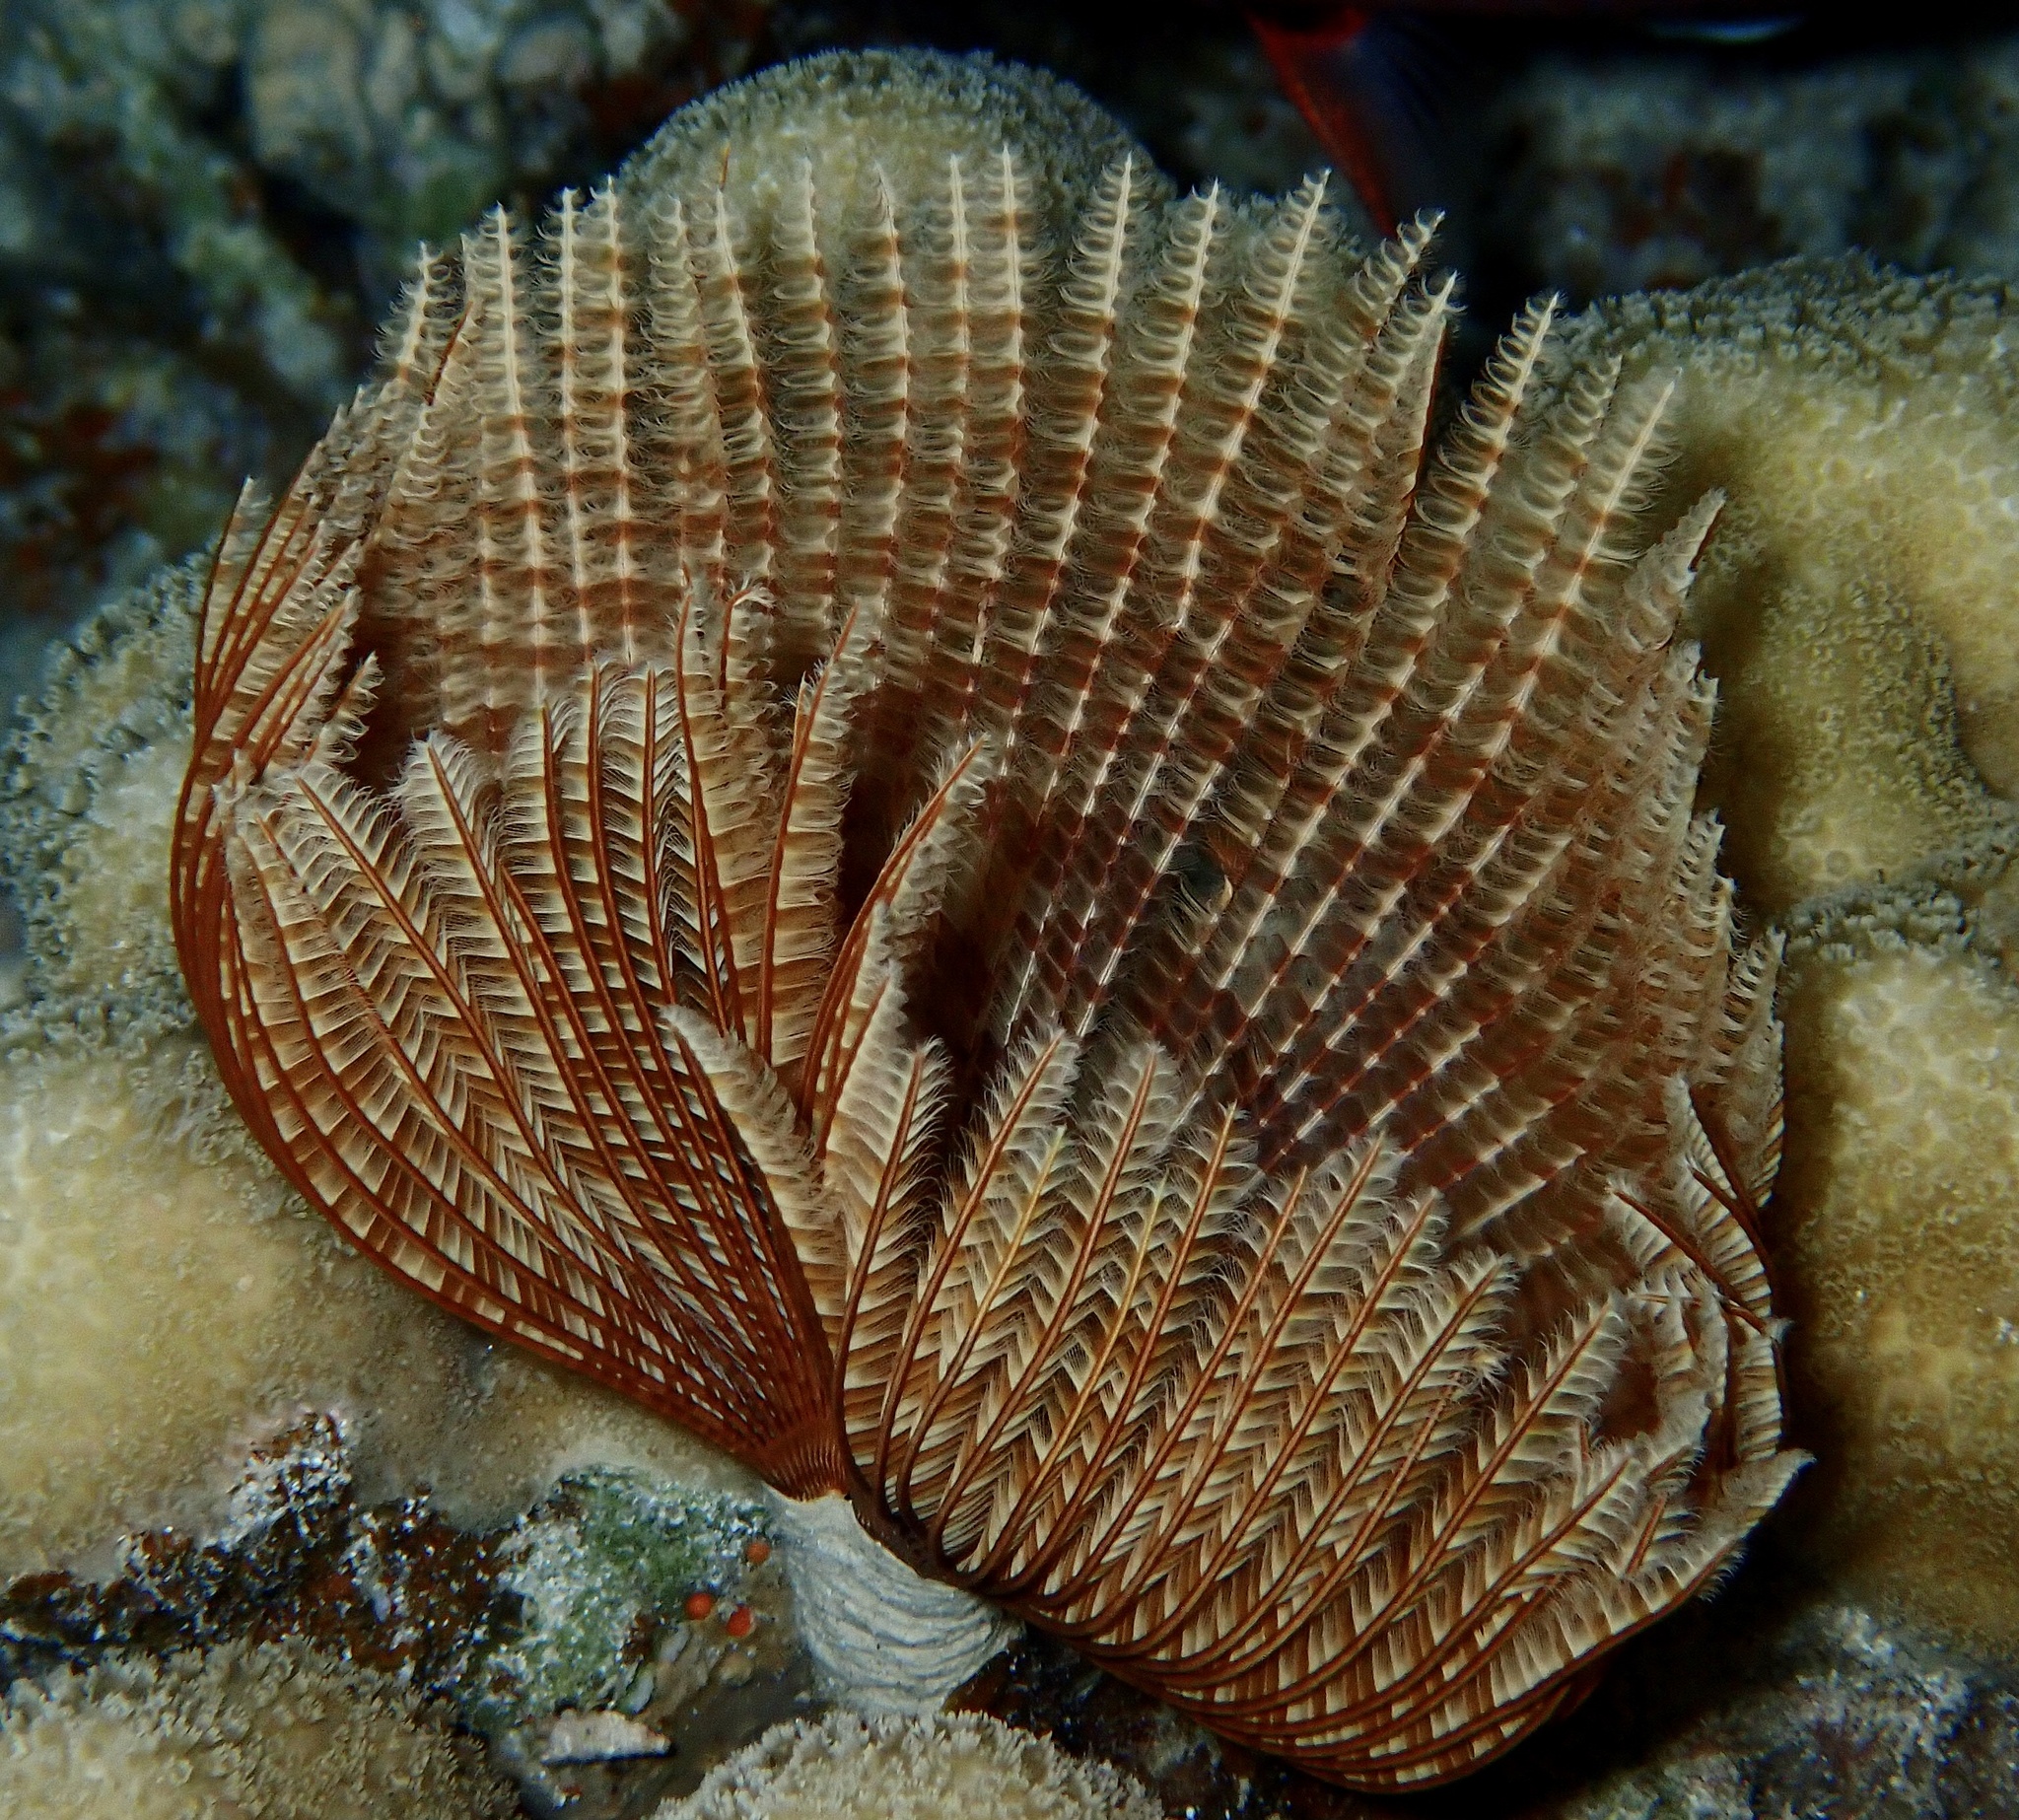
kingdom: Animalia
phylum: Annelida
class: Polychaeta
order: Sabellida
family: Sabellidae
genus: Sabellastarte
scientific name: Sabellastarte spectabilis
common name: Feather duster worm
